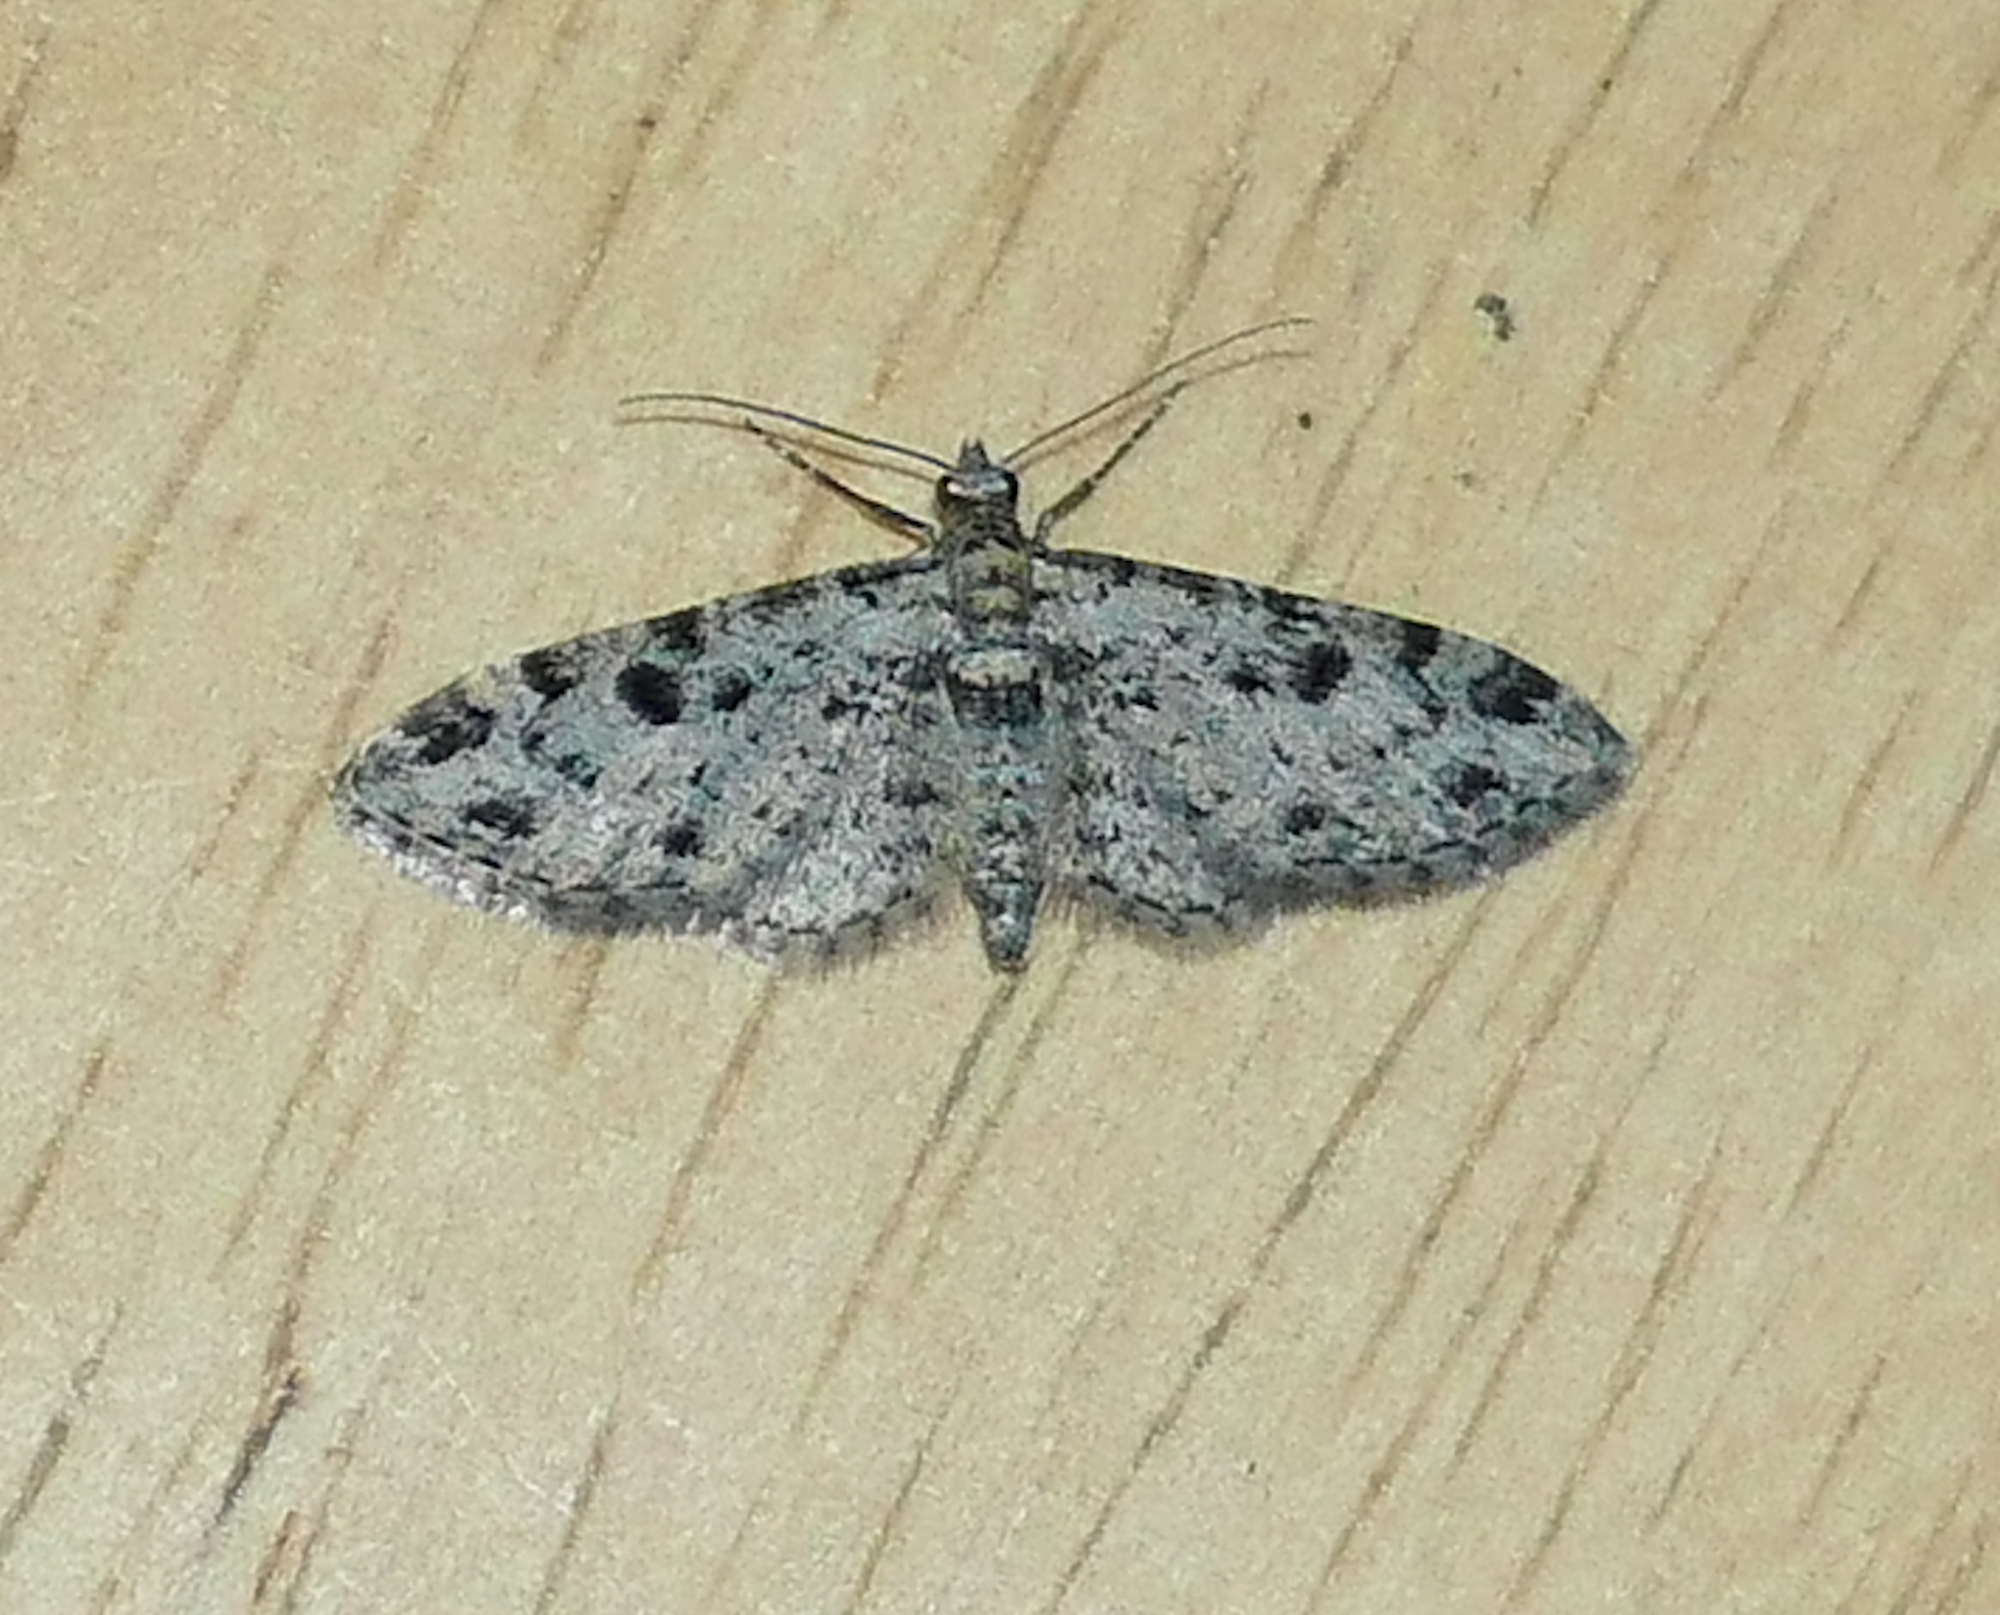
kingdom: Animalia
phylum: Arthropoda
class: Insecta
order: Lepidoptera
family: Geometridae
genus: Eupithecia
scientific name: Eupithecia
